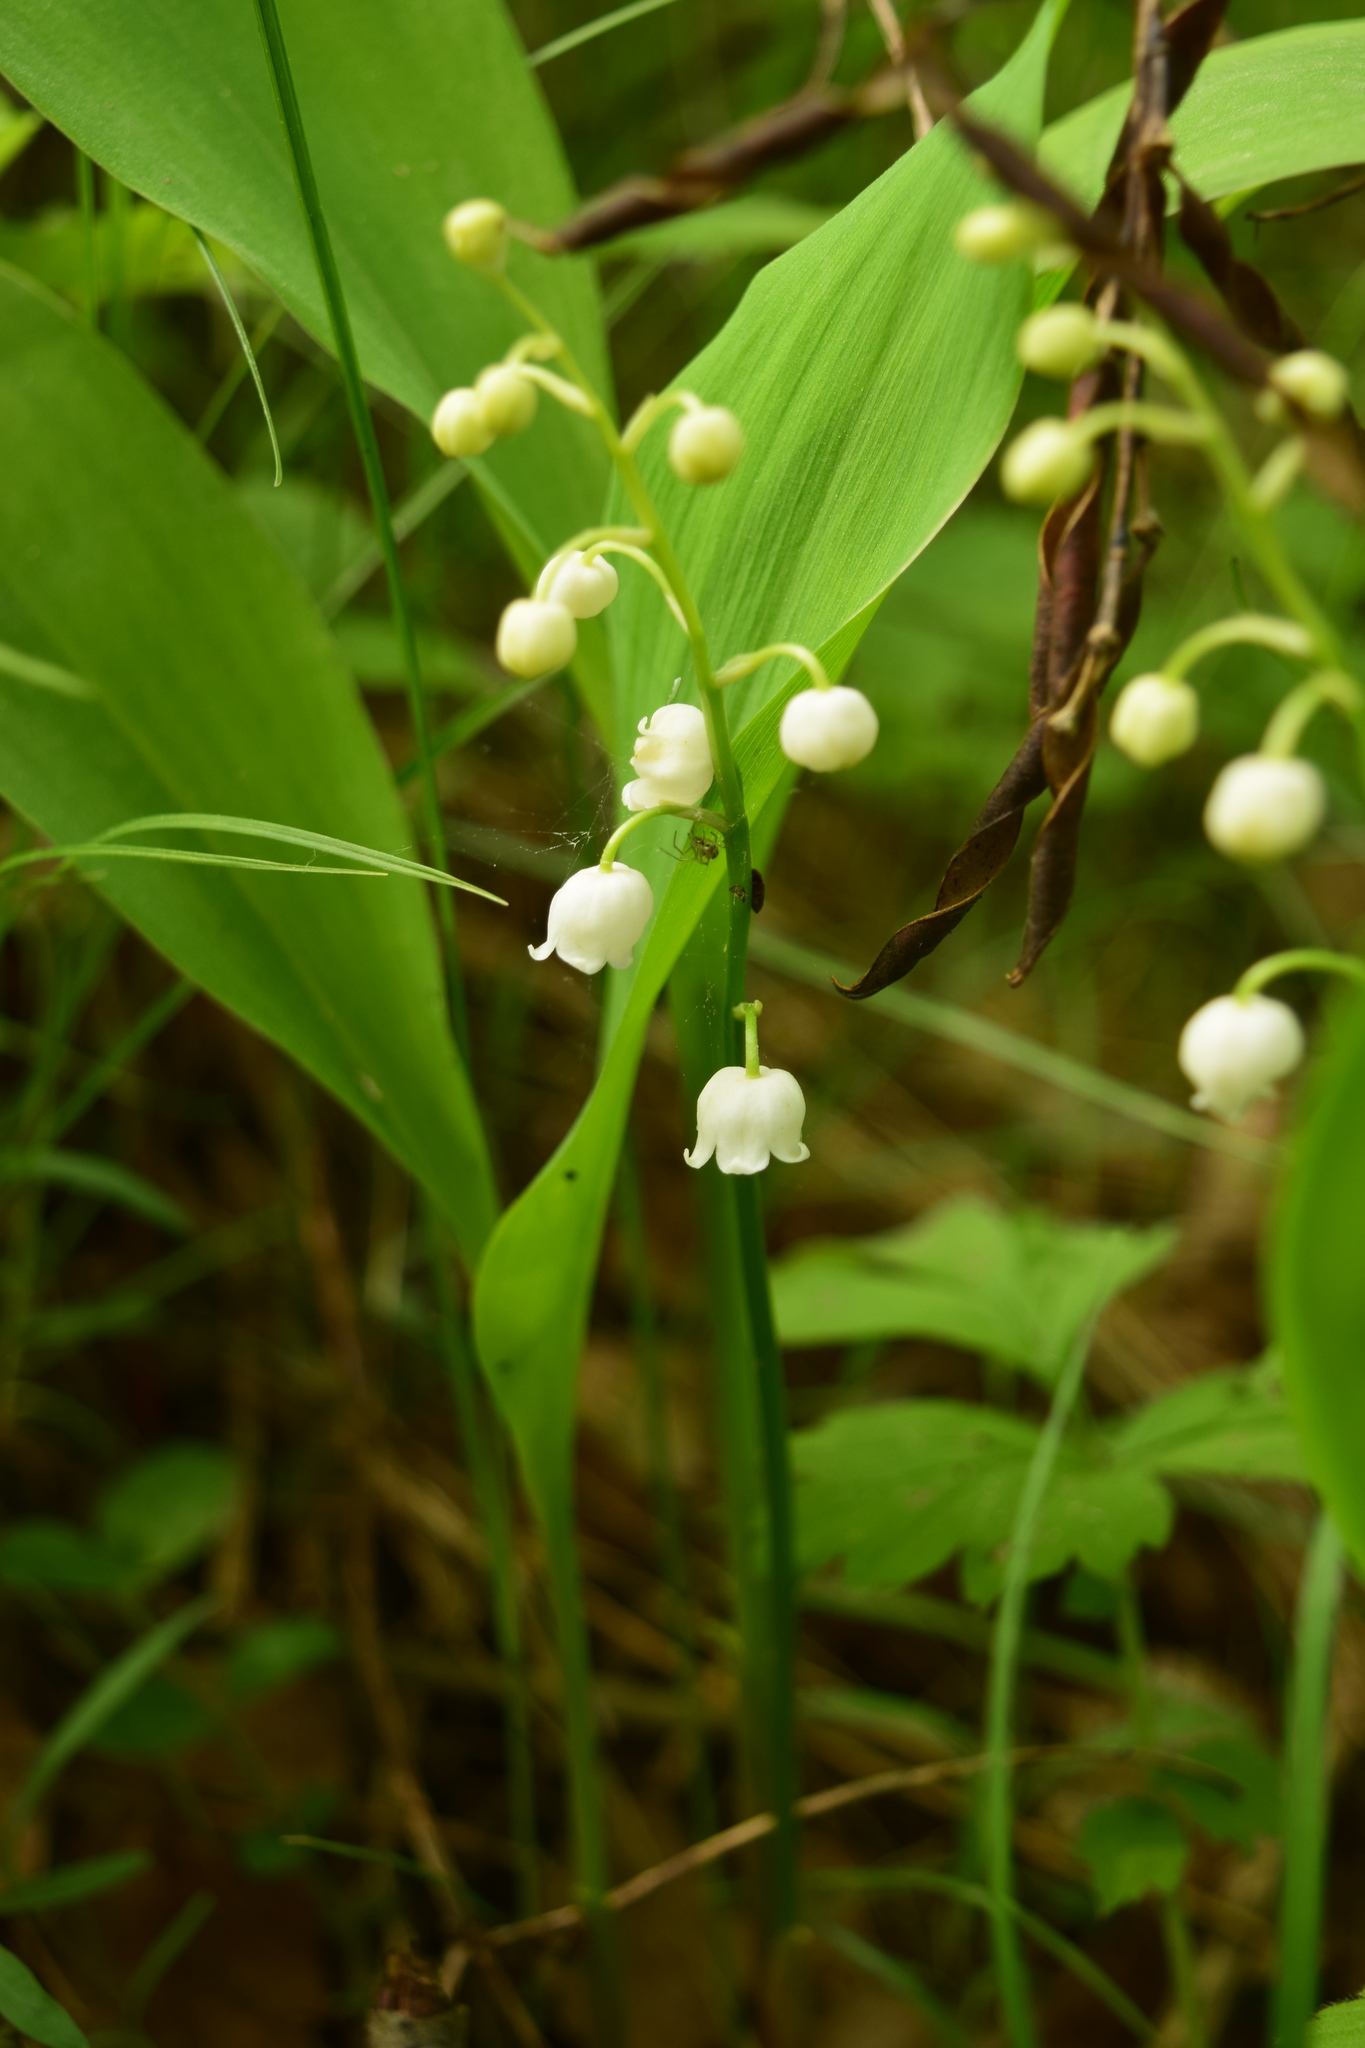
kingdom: Plantae
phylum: Tracheophyta
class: Liliopsida
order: Asparagales
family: Asparagaceae
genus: Convallaria
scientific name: Convallaria majalis
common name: Lily-of-the-valley
